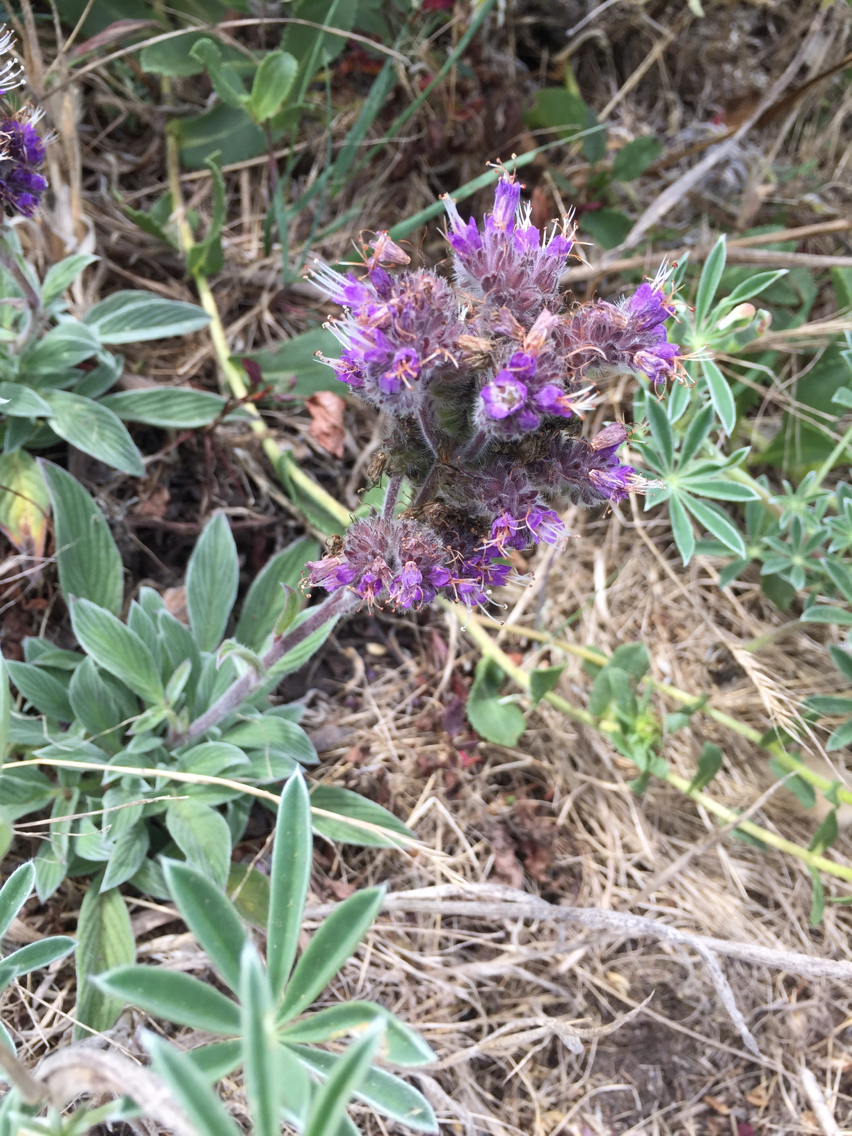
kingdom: Plantae
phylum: Tracheophyta
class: Magnoliopsida
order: Boraginales
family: Hydrophyllaceae
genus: Phacelia
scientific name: Phacelia californica
